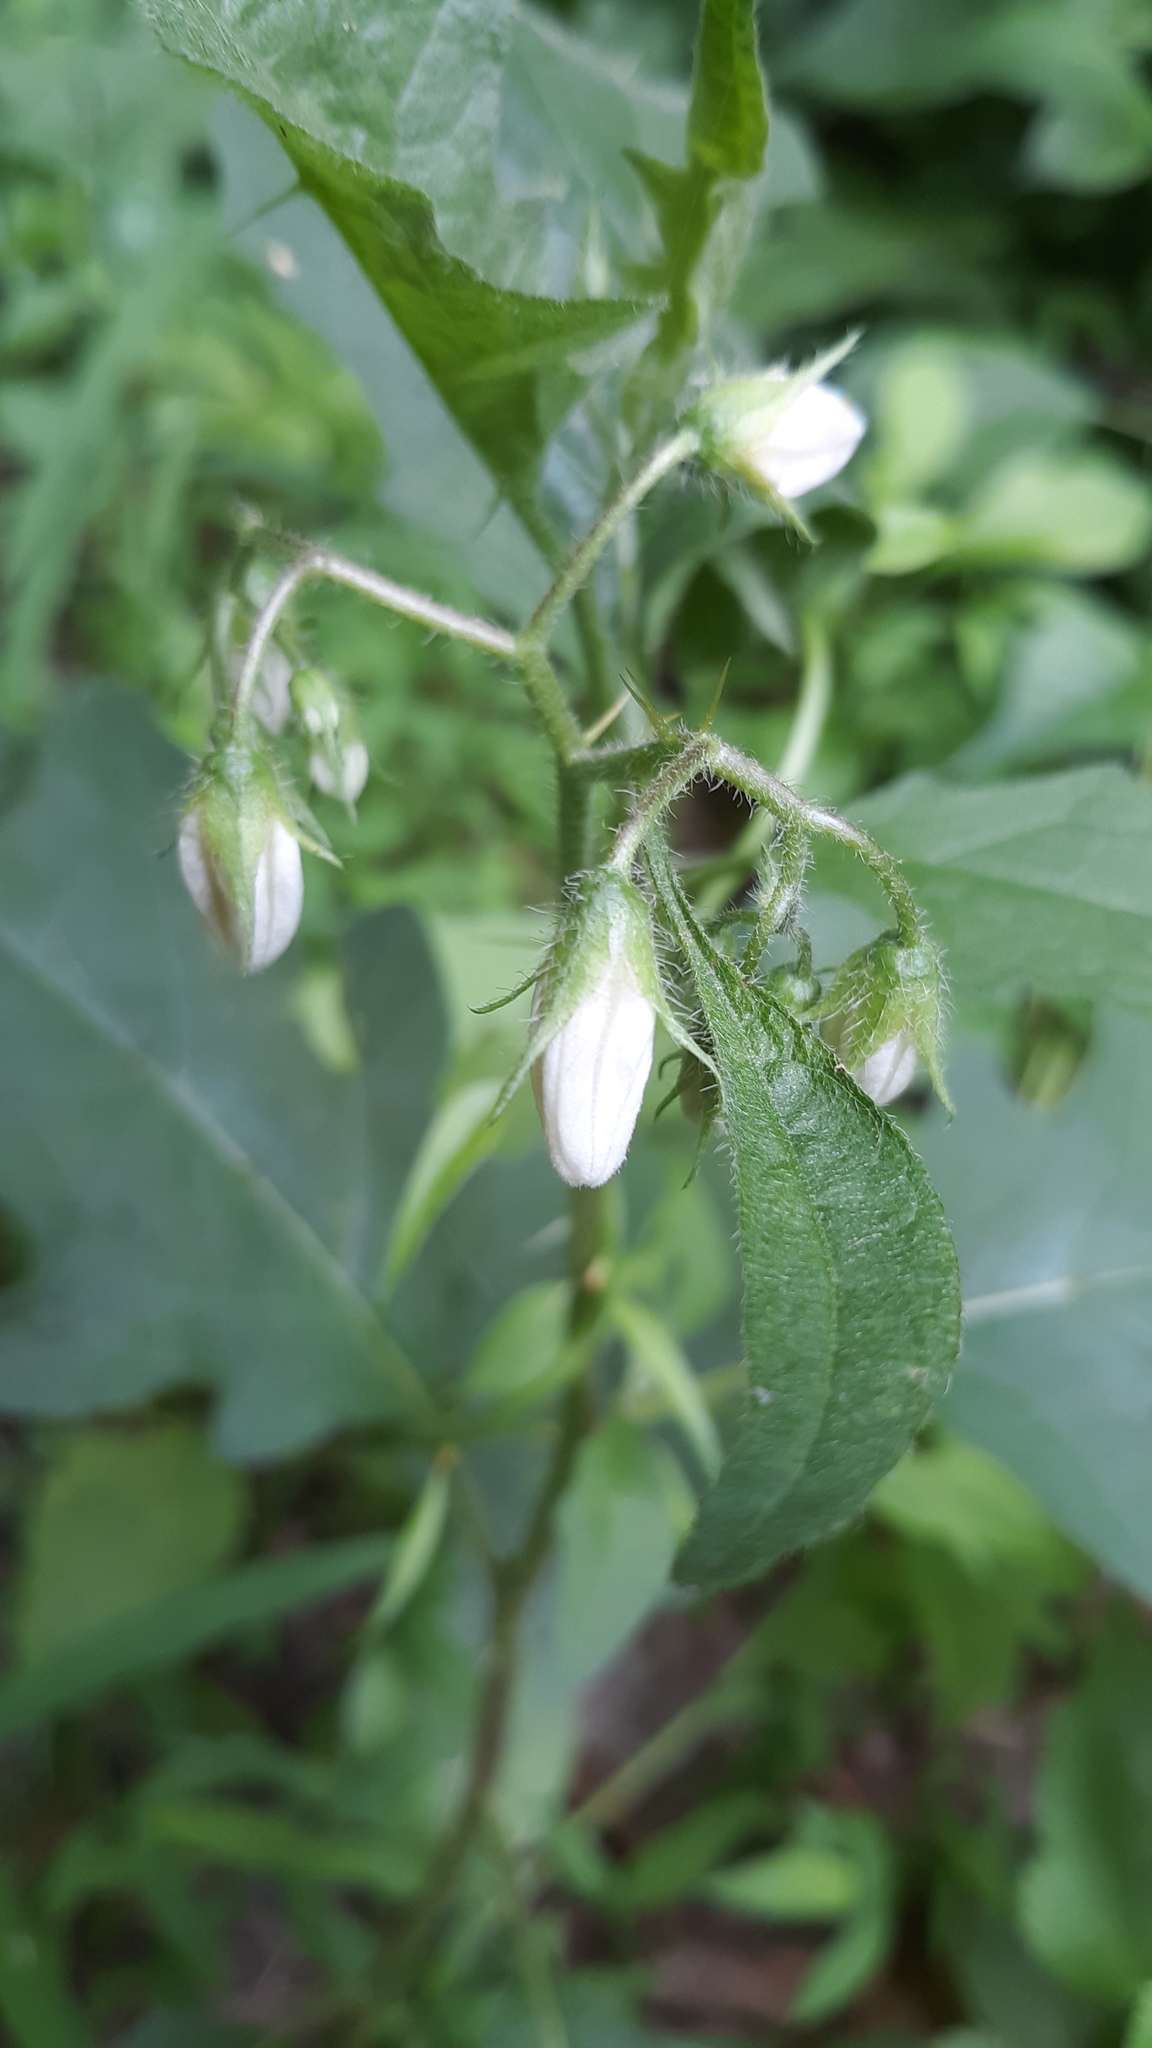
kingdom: Plantae
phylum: Tracheophyta
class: Magnoliopsida
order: Solanales
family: Solanaceae
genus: Solanum
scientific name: Solanum carolinense
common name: Horse-nettle
